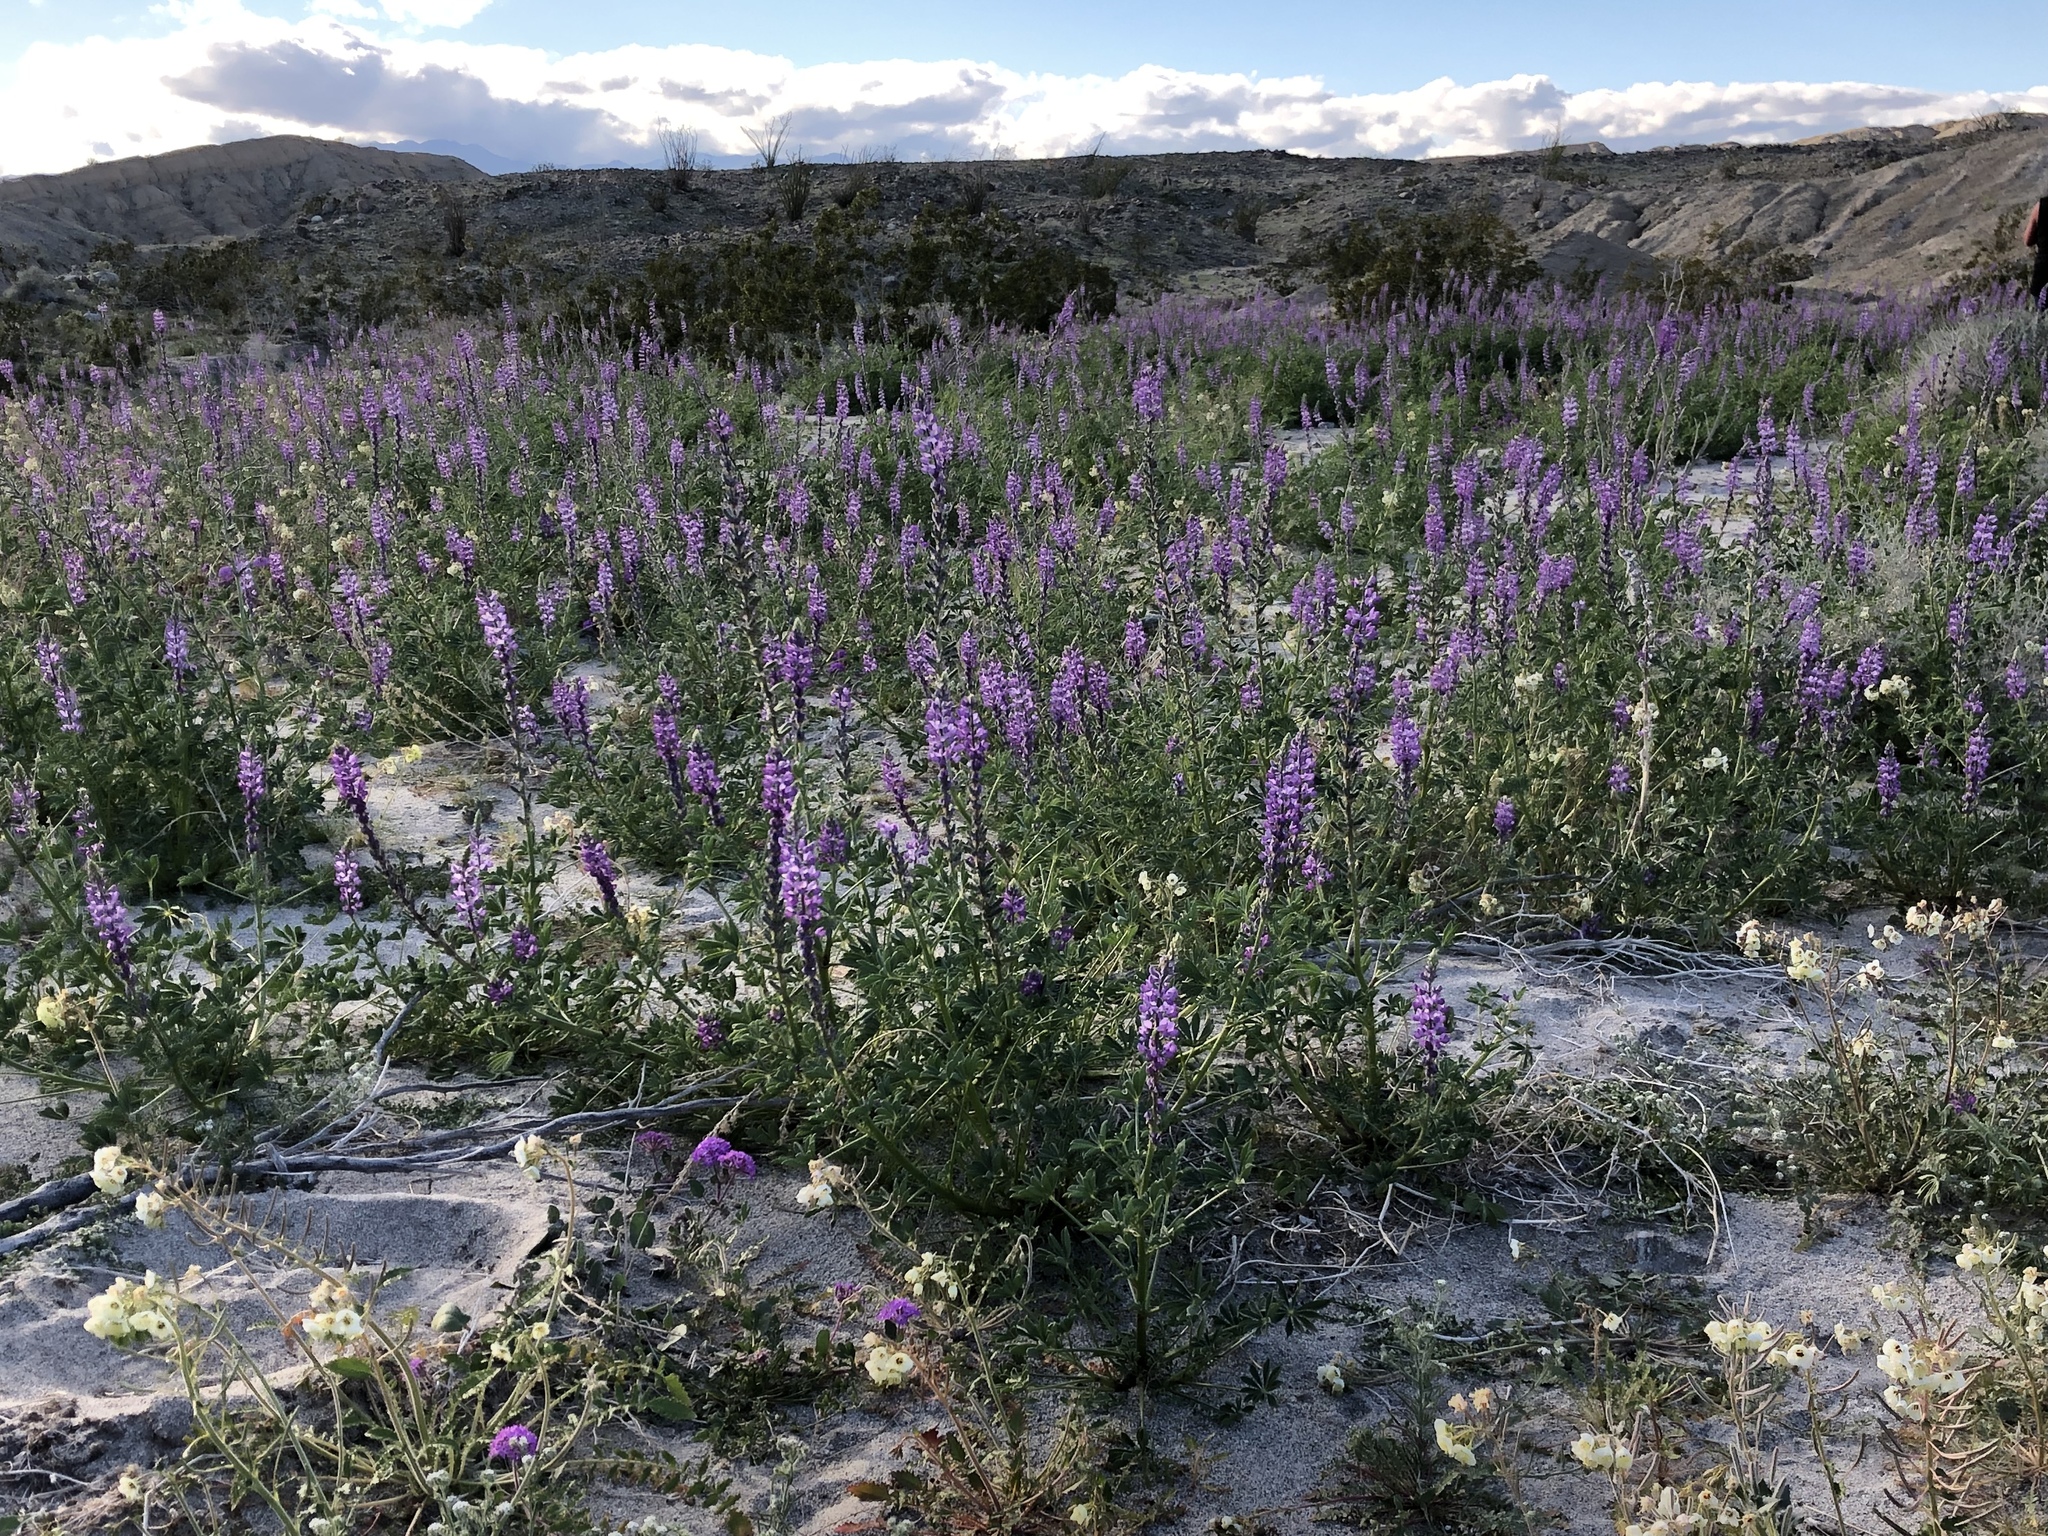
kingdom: Plantae
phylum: Tracheophyta
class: Magnoliopsida
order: Fabales
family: Fabaceae
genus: Lupinus
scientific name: Lupinus arizonicus
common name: Arizona lupine
